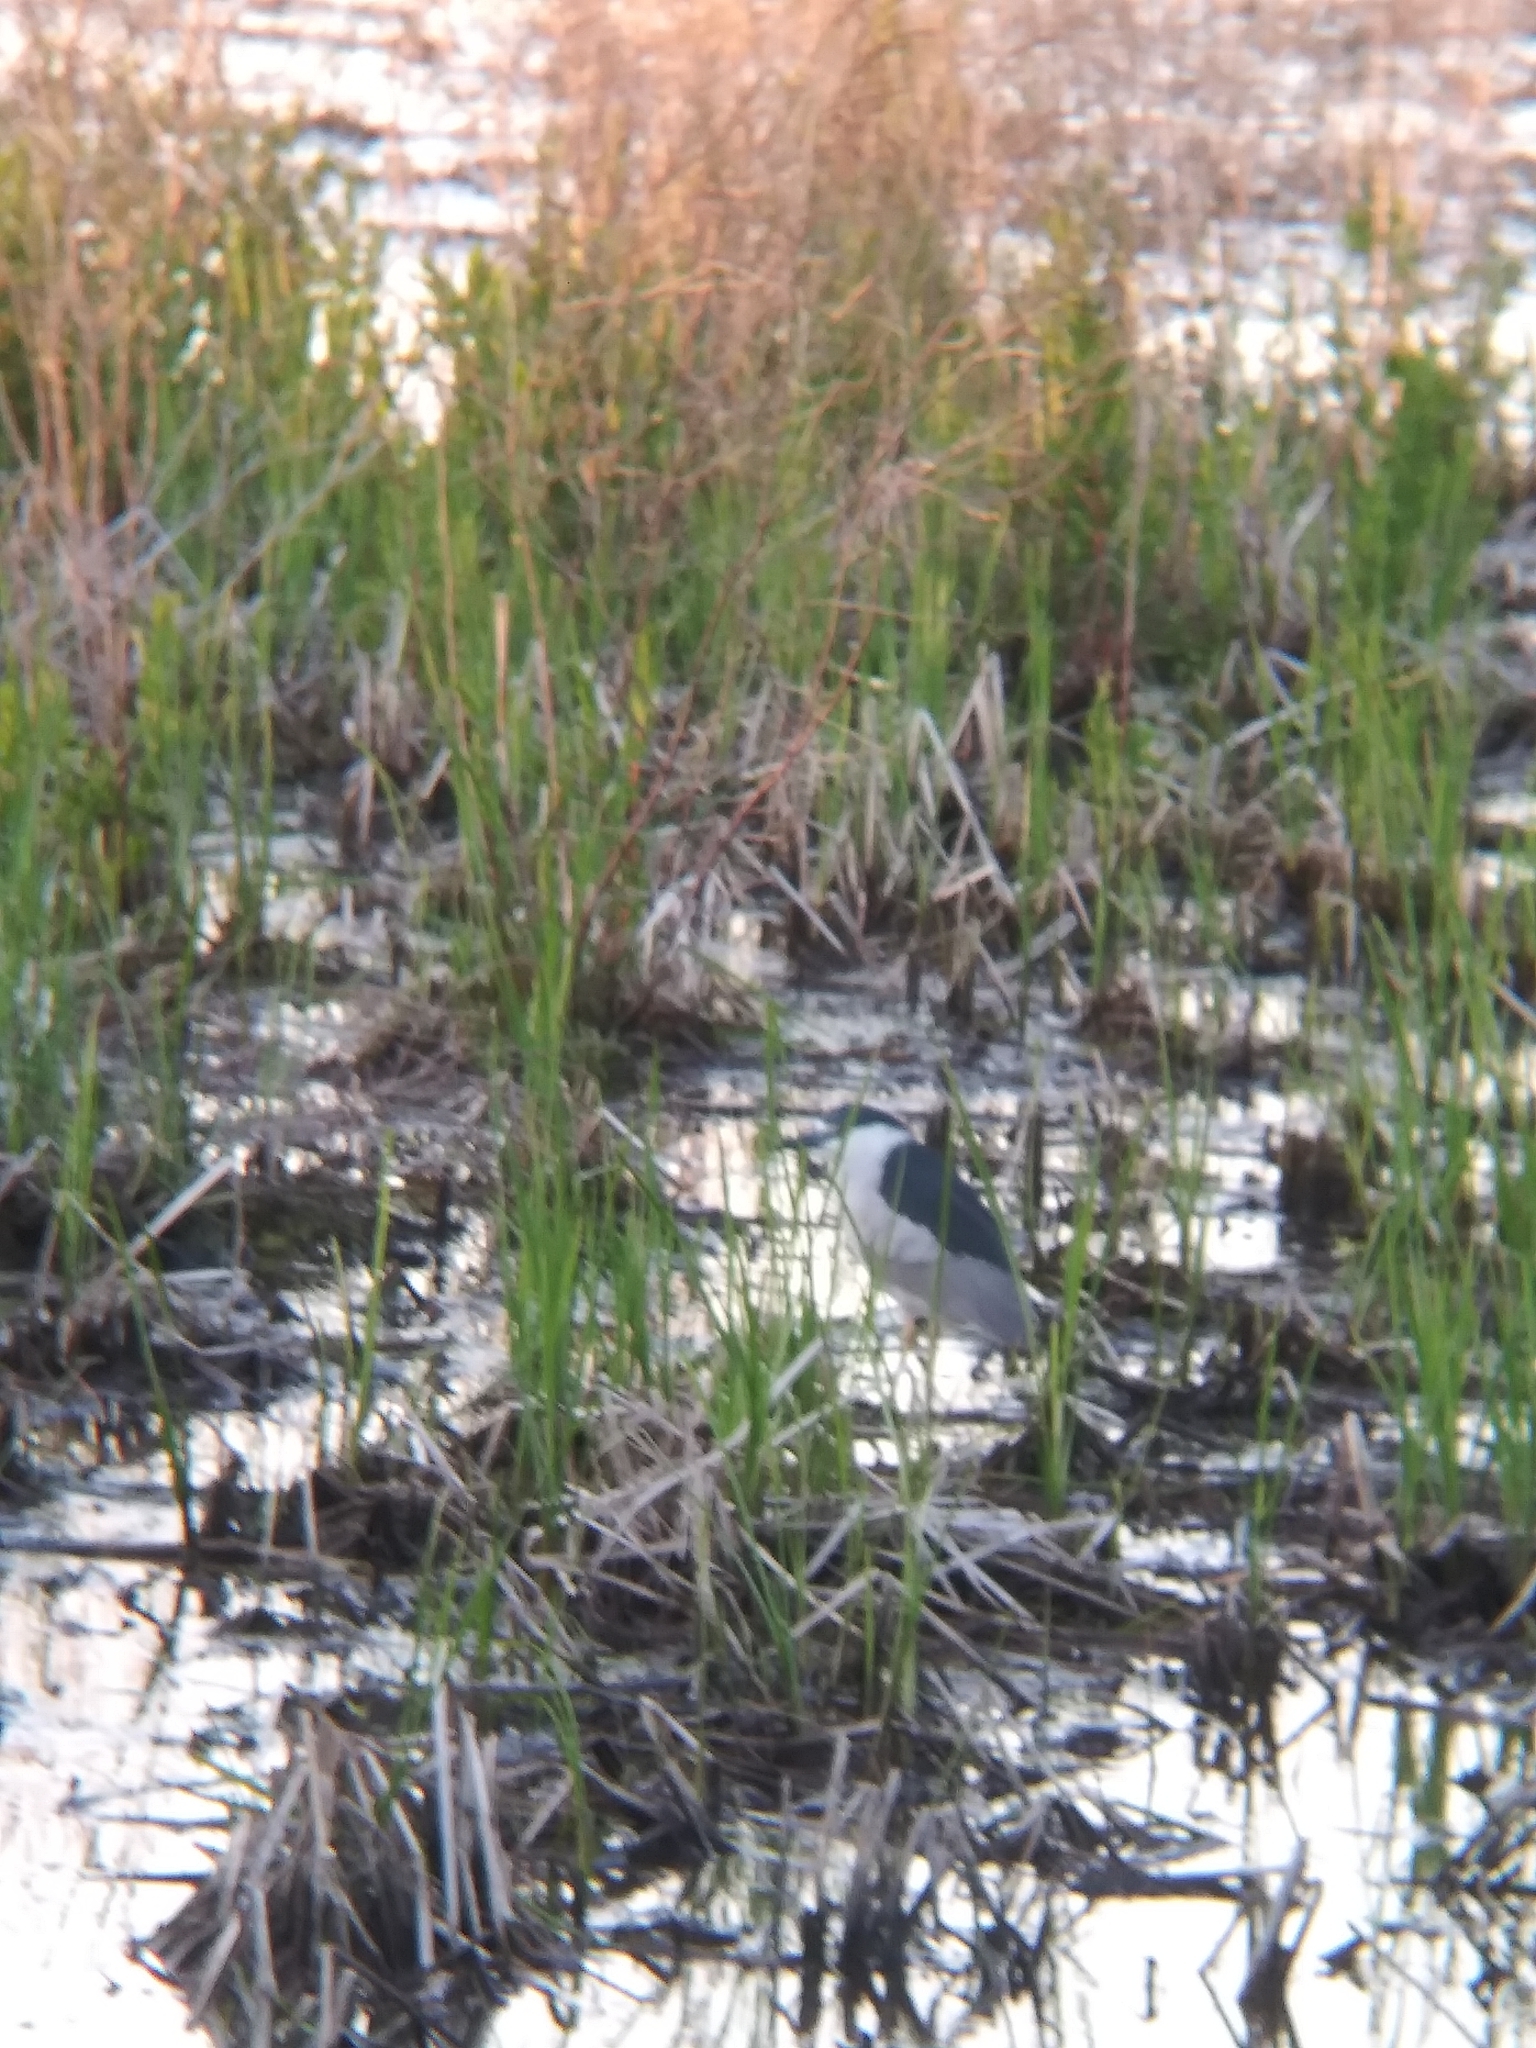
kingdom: Animalia
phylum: Chordata
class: Aves
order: Pelecaniformes
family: Ardeidae
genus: Nycticorax
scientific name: Nycticorax nycticorax
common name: Black-crowned night heron
